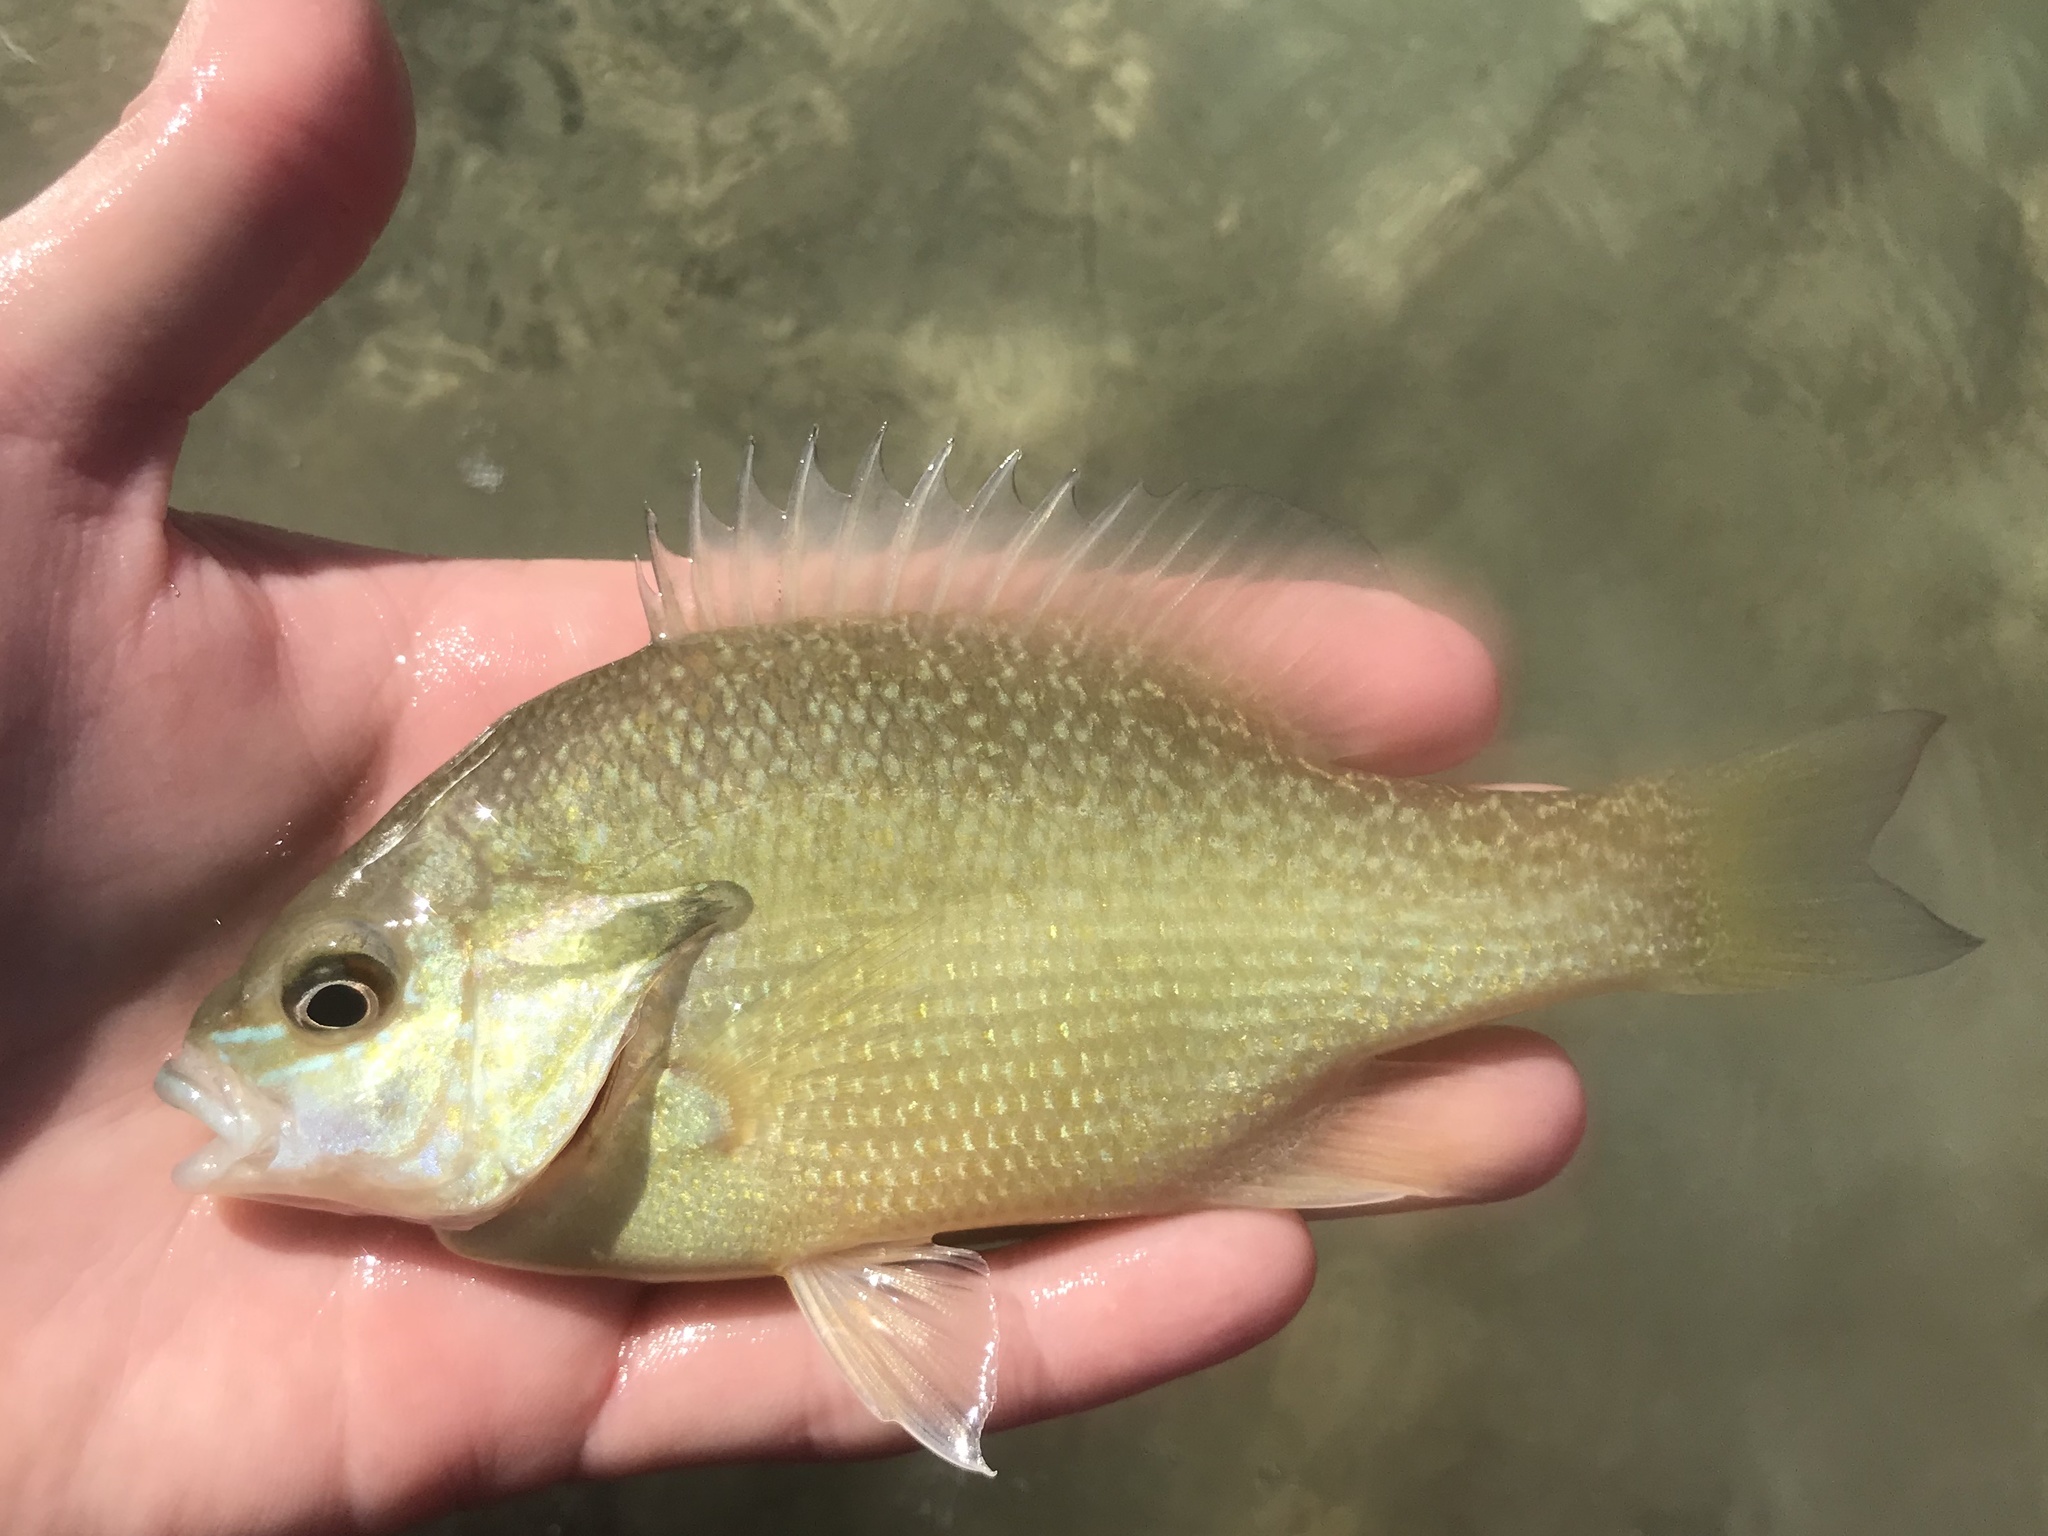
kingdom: Animalia
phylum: Chordata
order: Perciformes
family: Centrarchidae
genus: Lepomis
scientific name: Lepomis auritus
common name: Redbreast sunfish
